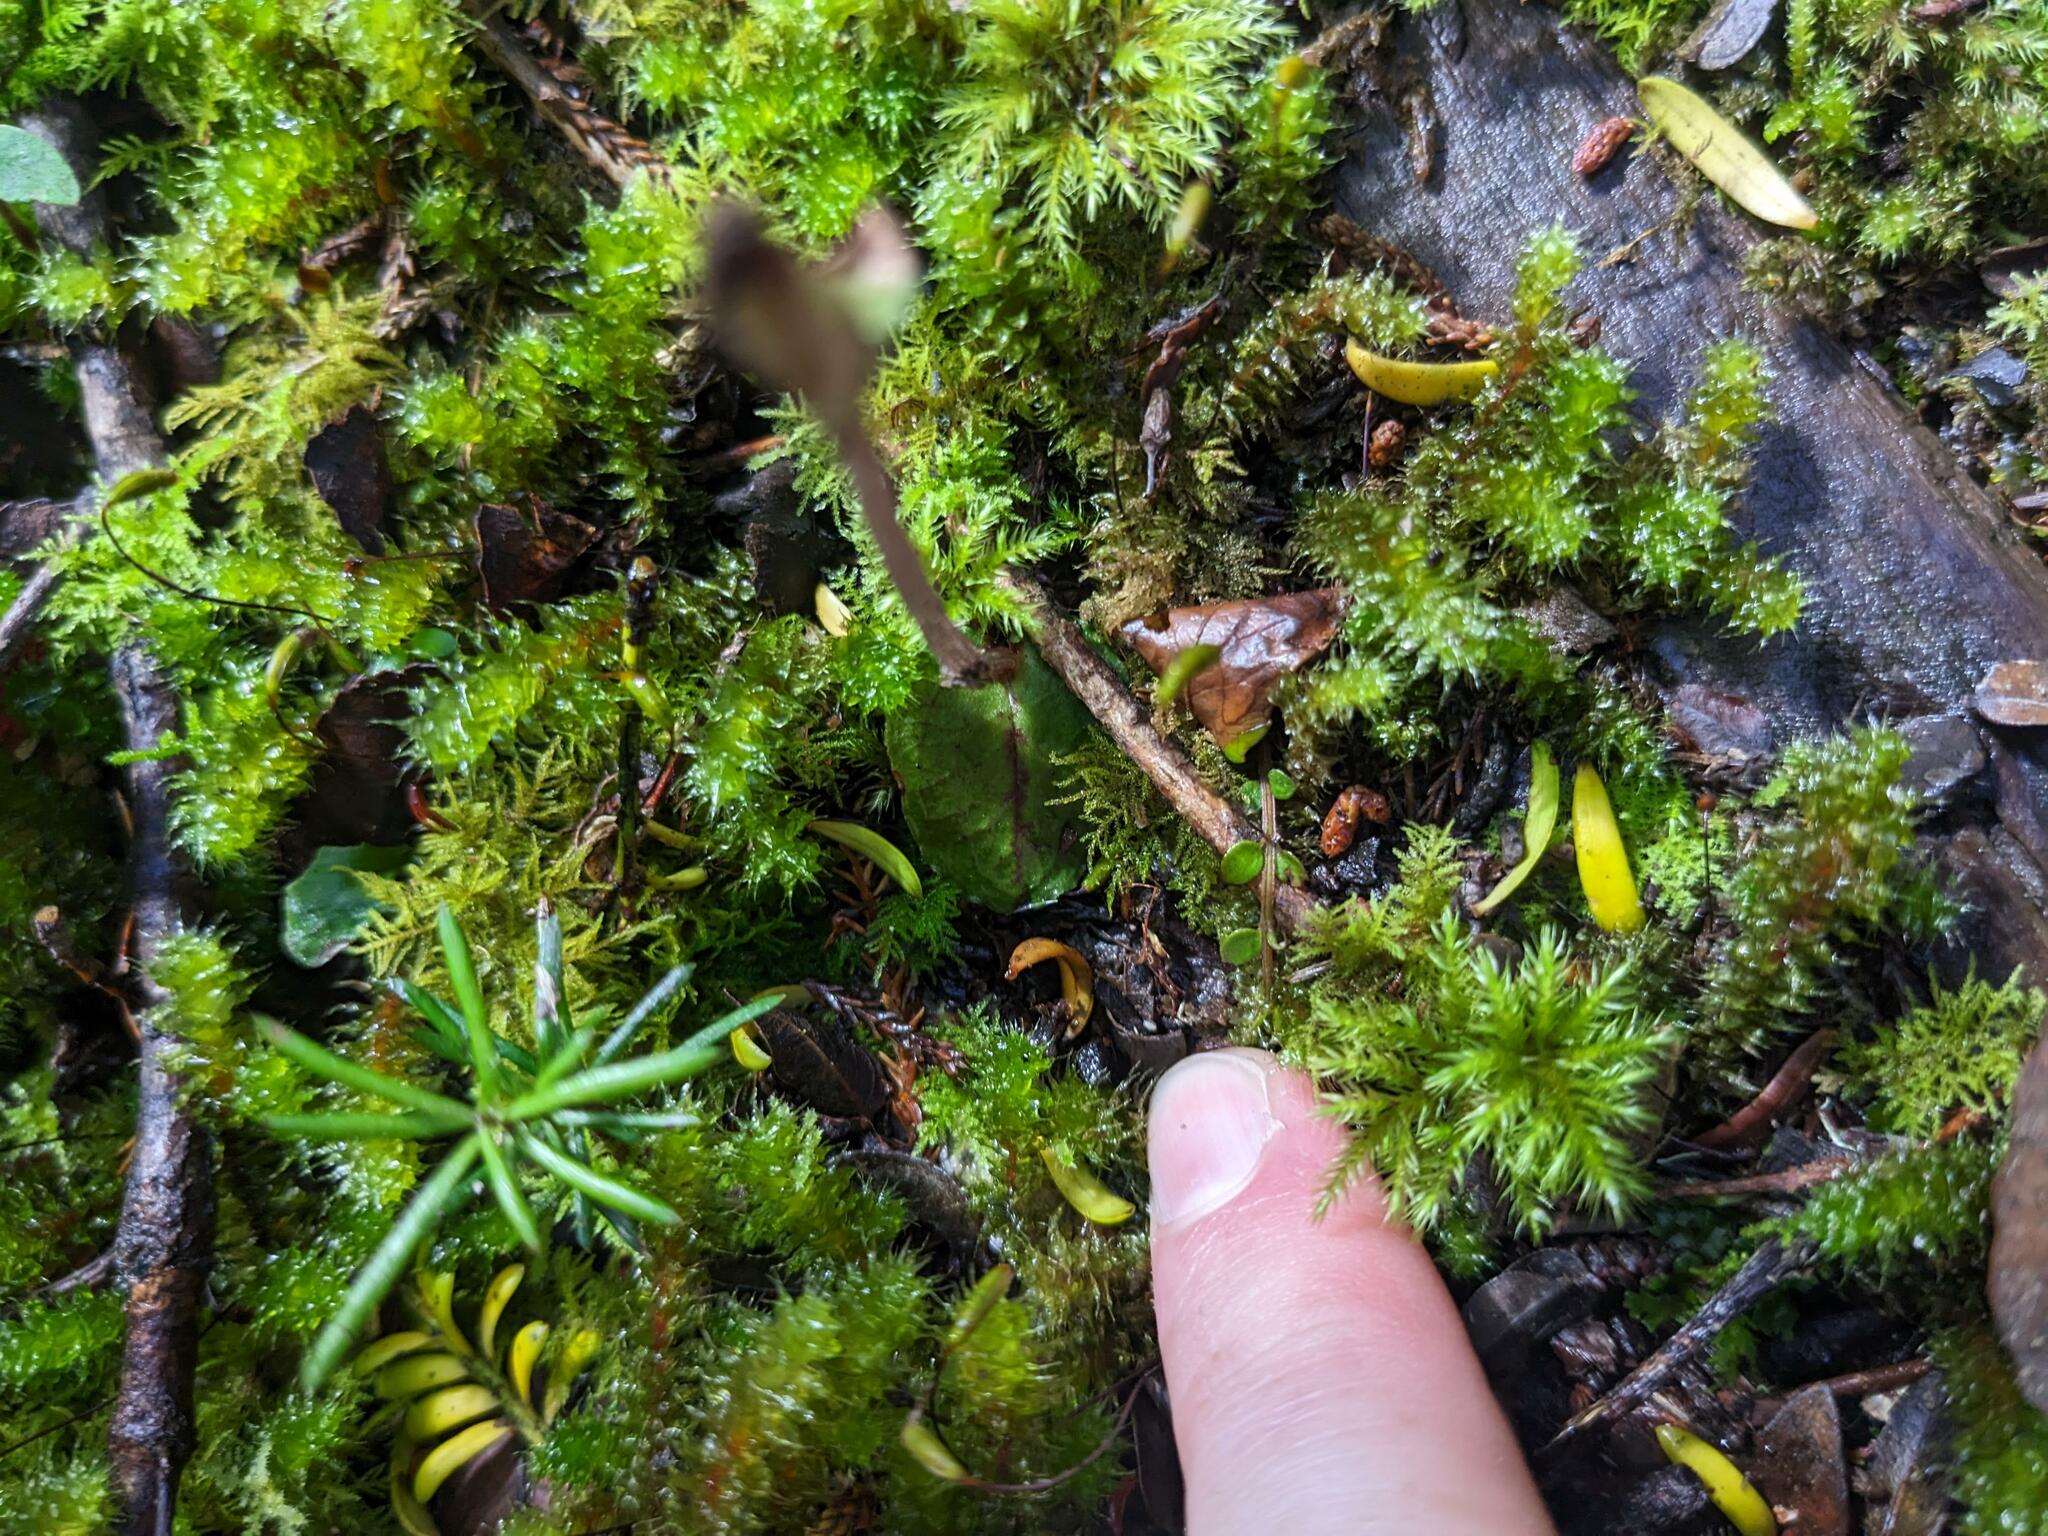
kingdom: Plantae
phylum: Tracheophyta
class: Liliopsida
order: Asparagales
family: Orchidaceae
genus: Corybas
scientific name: Corybas oblongus
